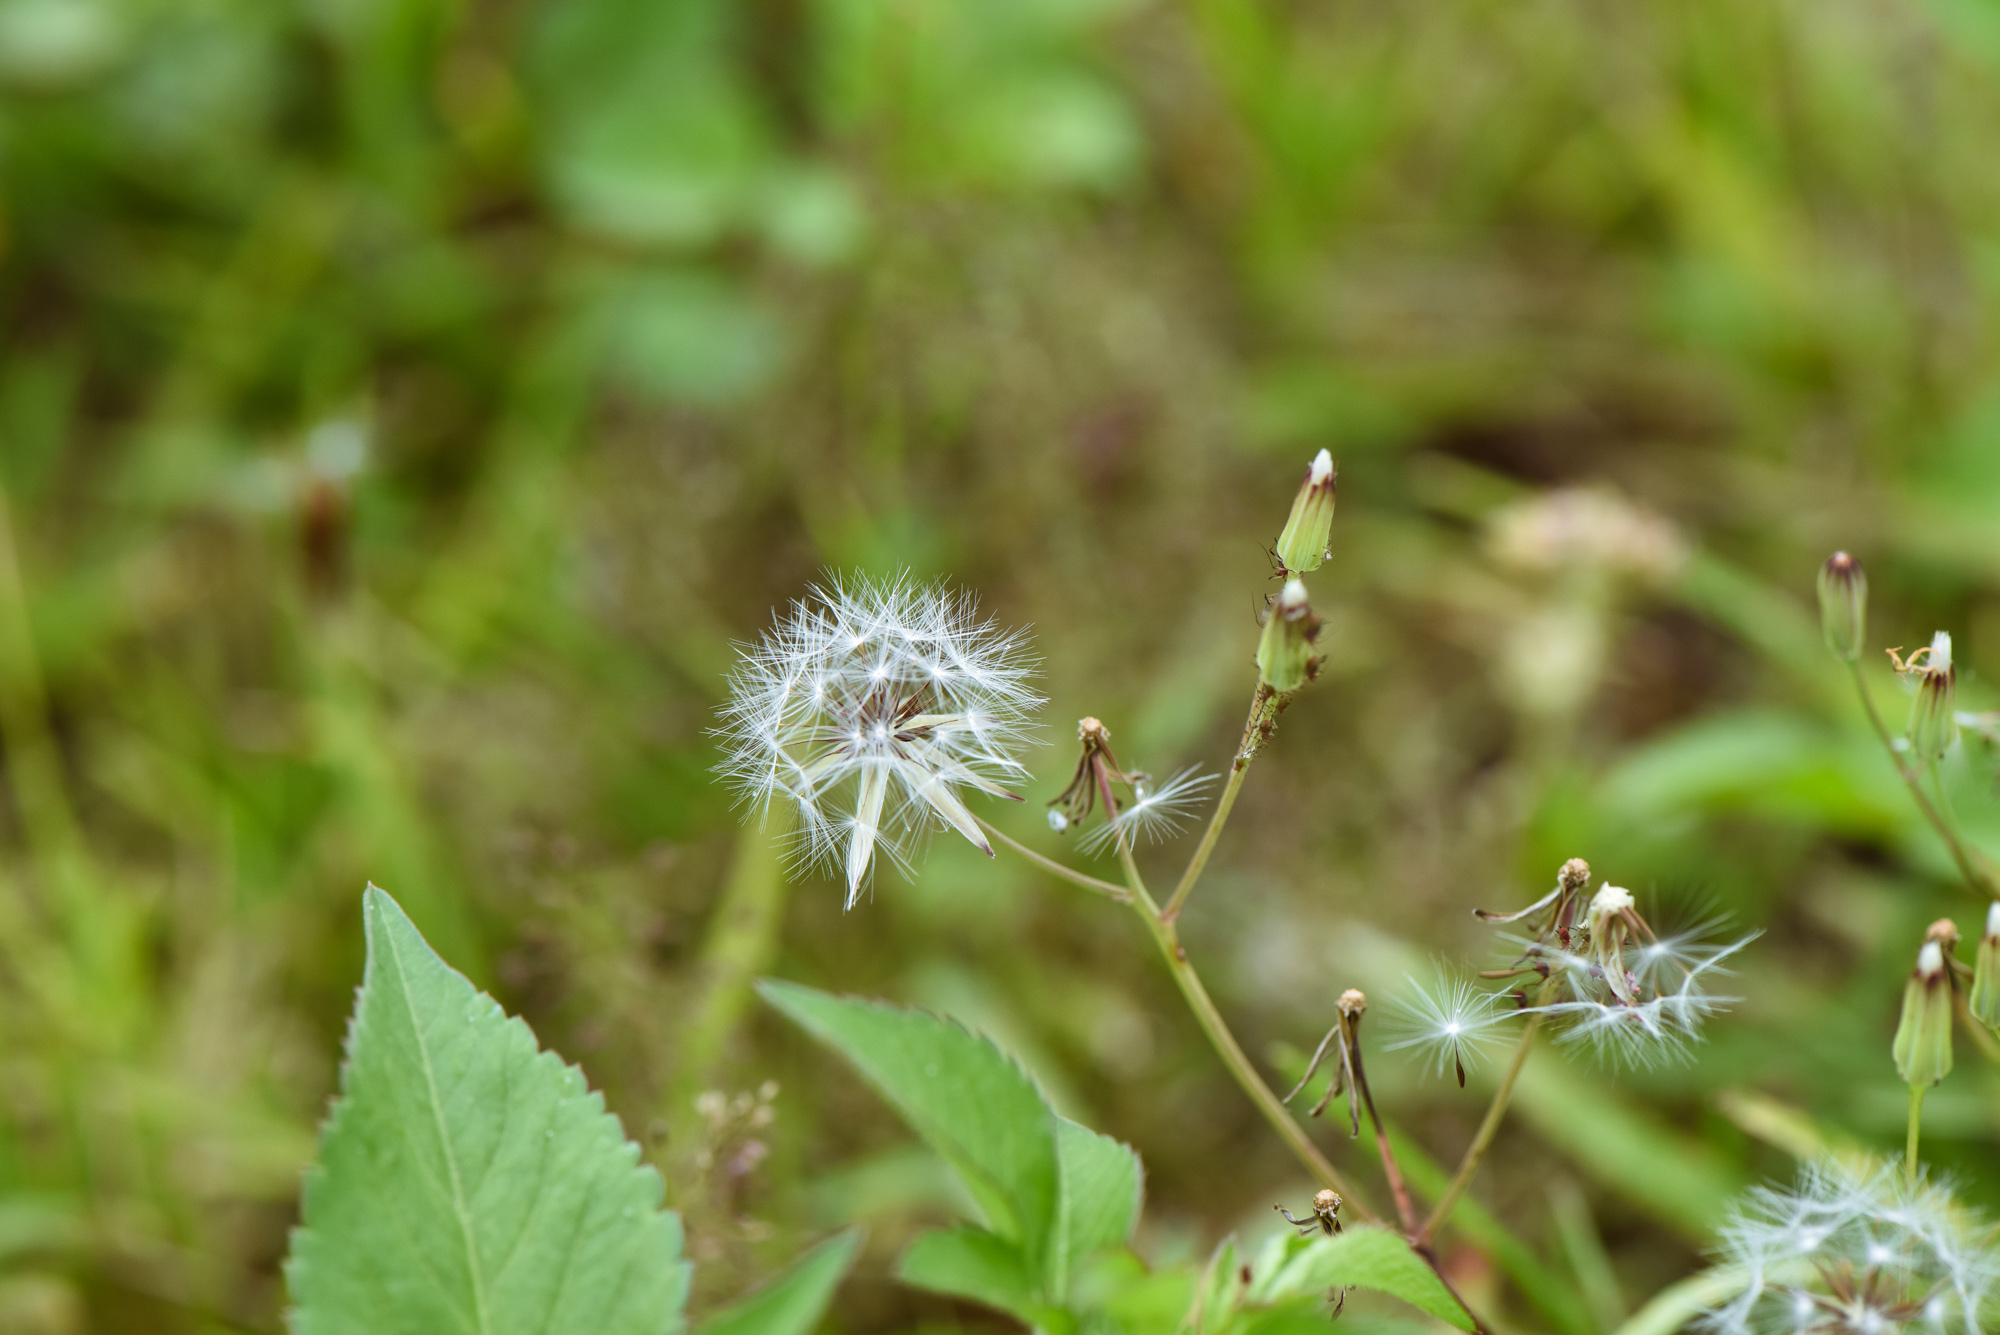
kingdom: Plantae
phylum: Tracheophyta
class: Magnoliopsida
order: Asterales
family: Asteraceae
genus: Ixeris
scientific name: Ixeris chinensis
